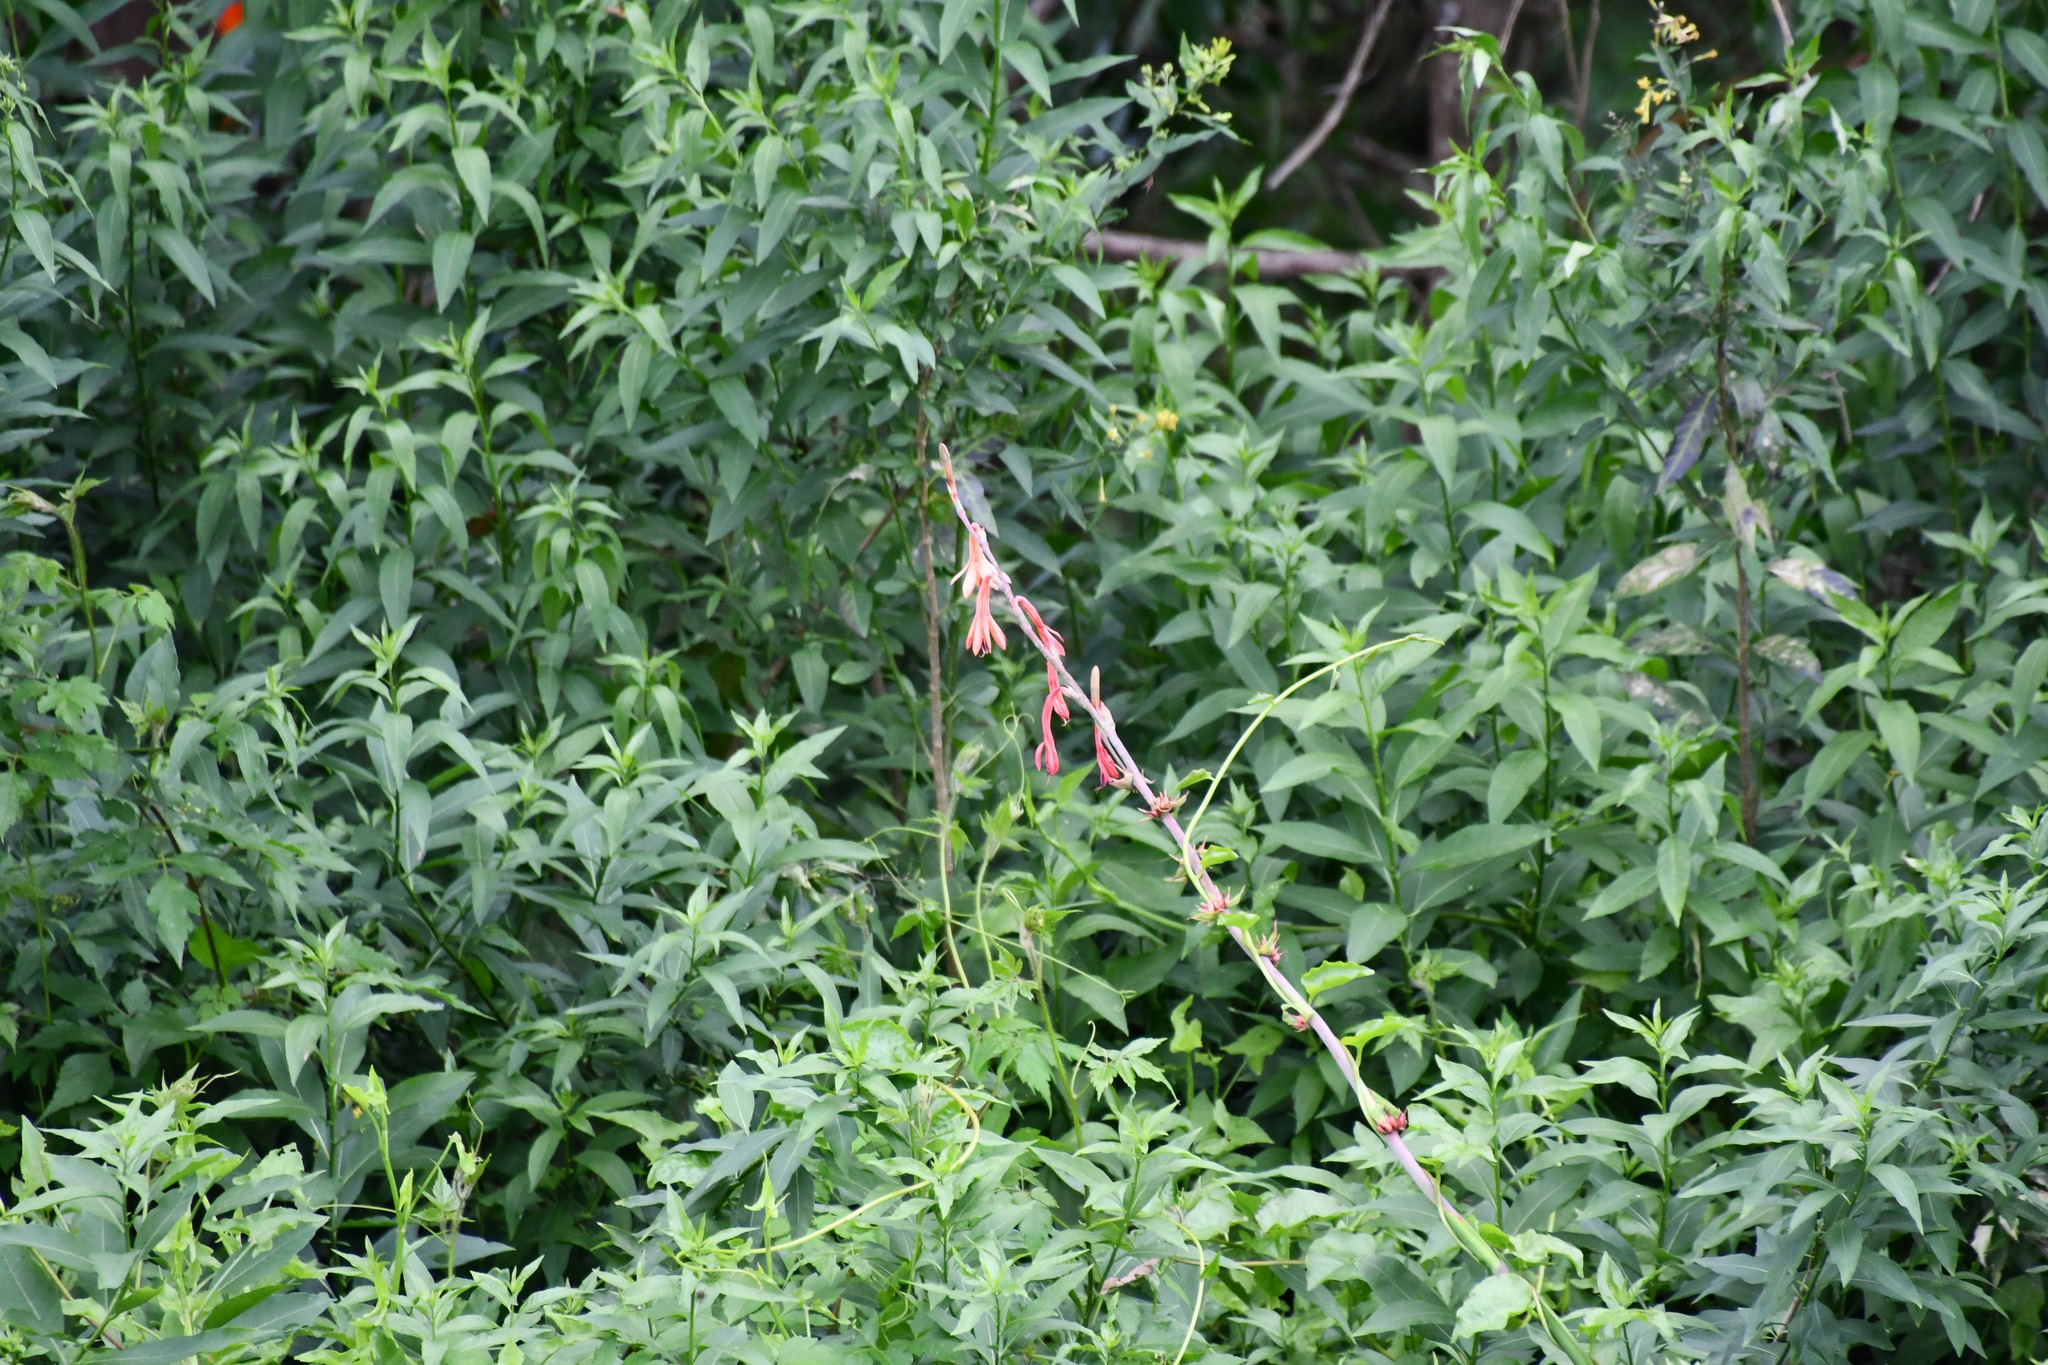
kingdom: Plantae
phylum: Tracheophyta
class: Liliopsida
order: Asparagales
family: Iridaceae
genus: Watsonia
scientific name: Watsonia meriana
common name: Bulbil bugle-lily
